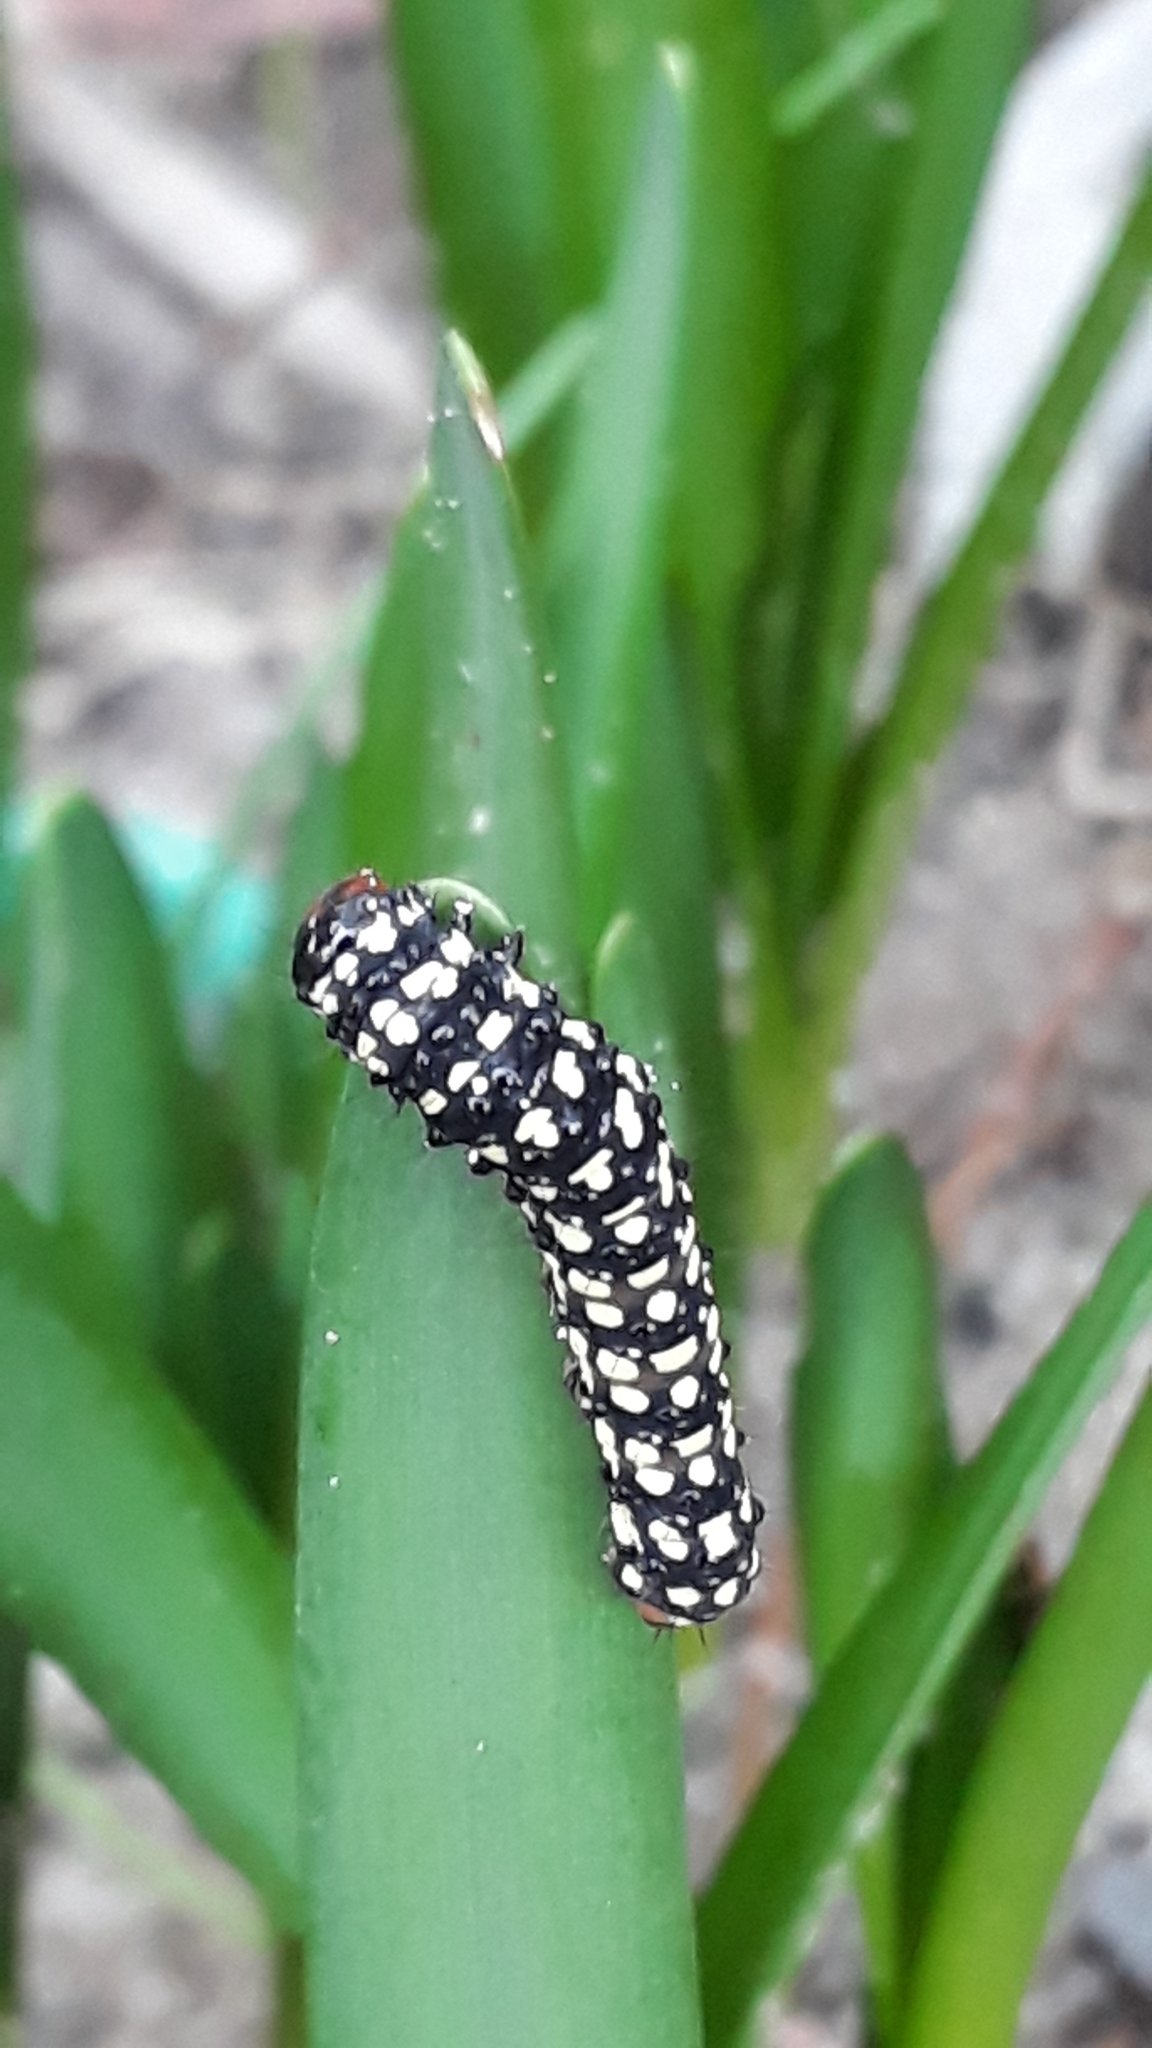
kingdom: Animalia
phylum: Arthropoda
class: Insecta
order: Lepidoptera
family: Noctuidae
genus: Brithys
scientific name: Brithys crini
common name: Kew arches
